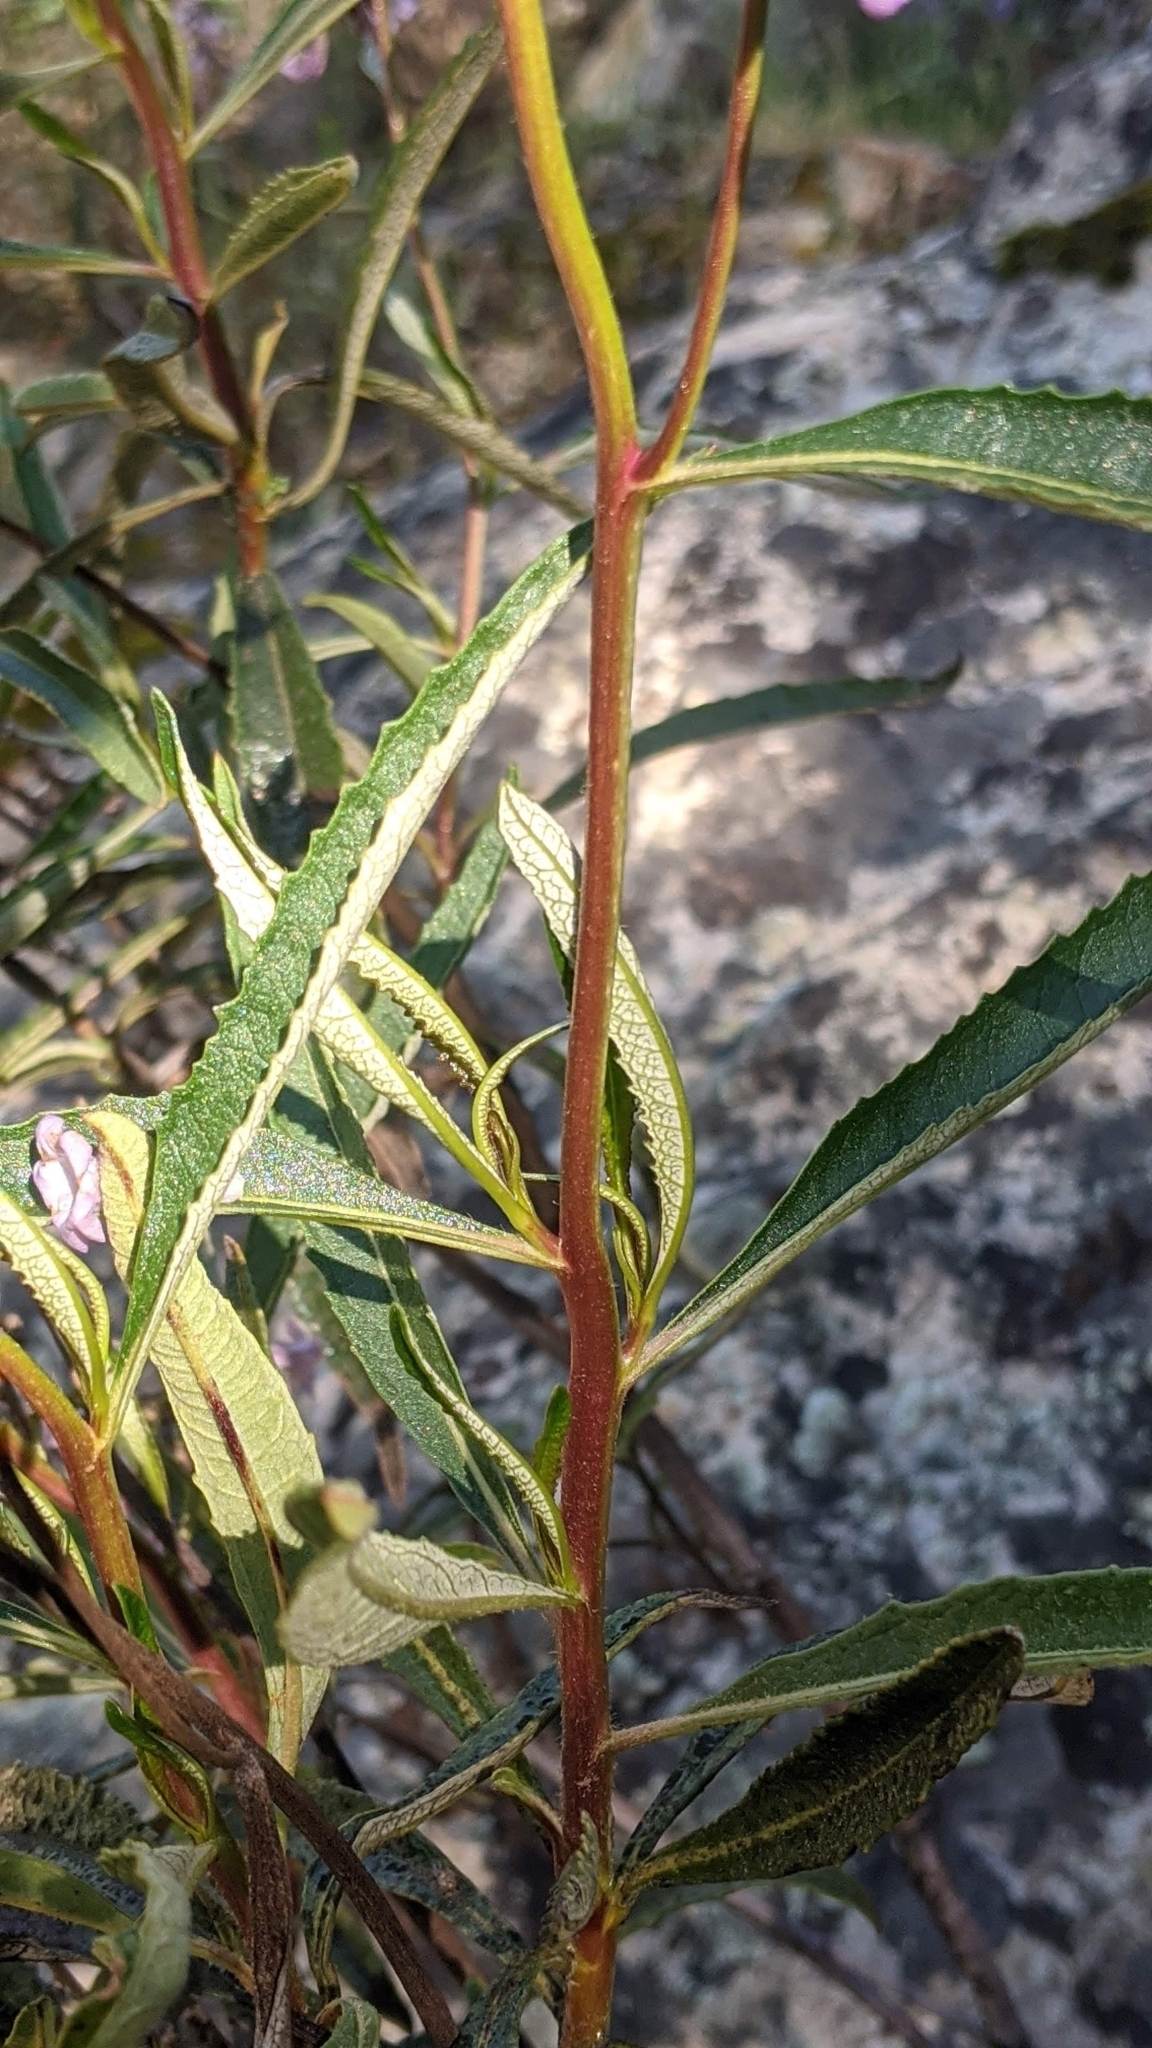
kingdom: Plantae
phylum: Tracheophyta
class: Magnoliopsida
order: Boraginales
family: Namaceae
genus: Eriodictyon
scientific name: Eriodictyon californicum
